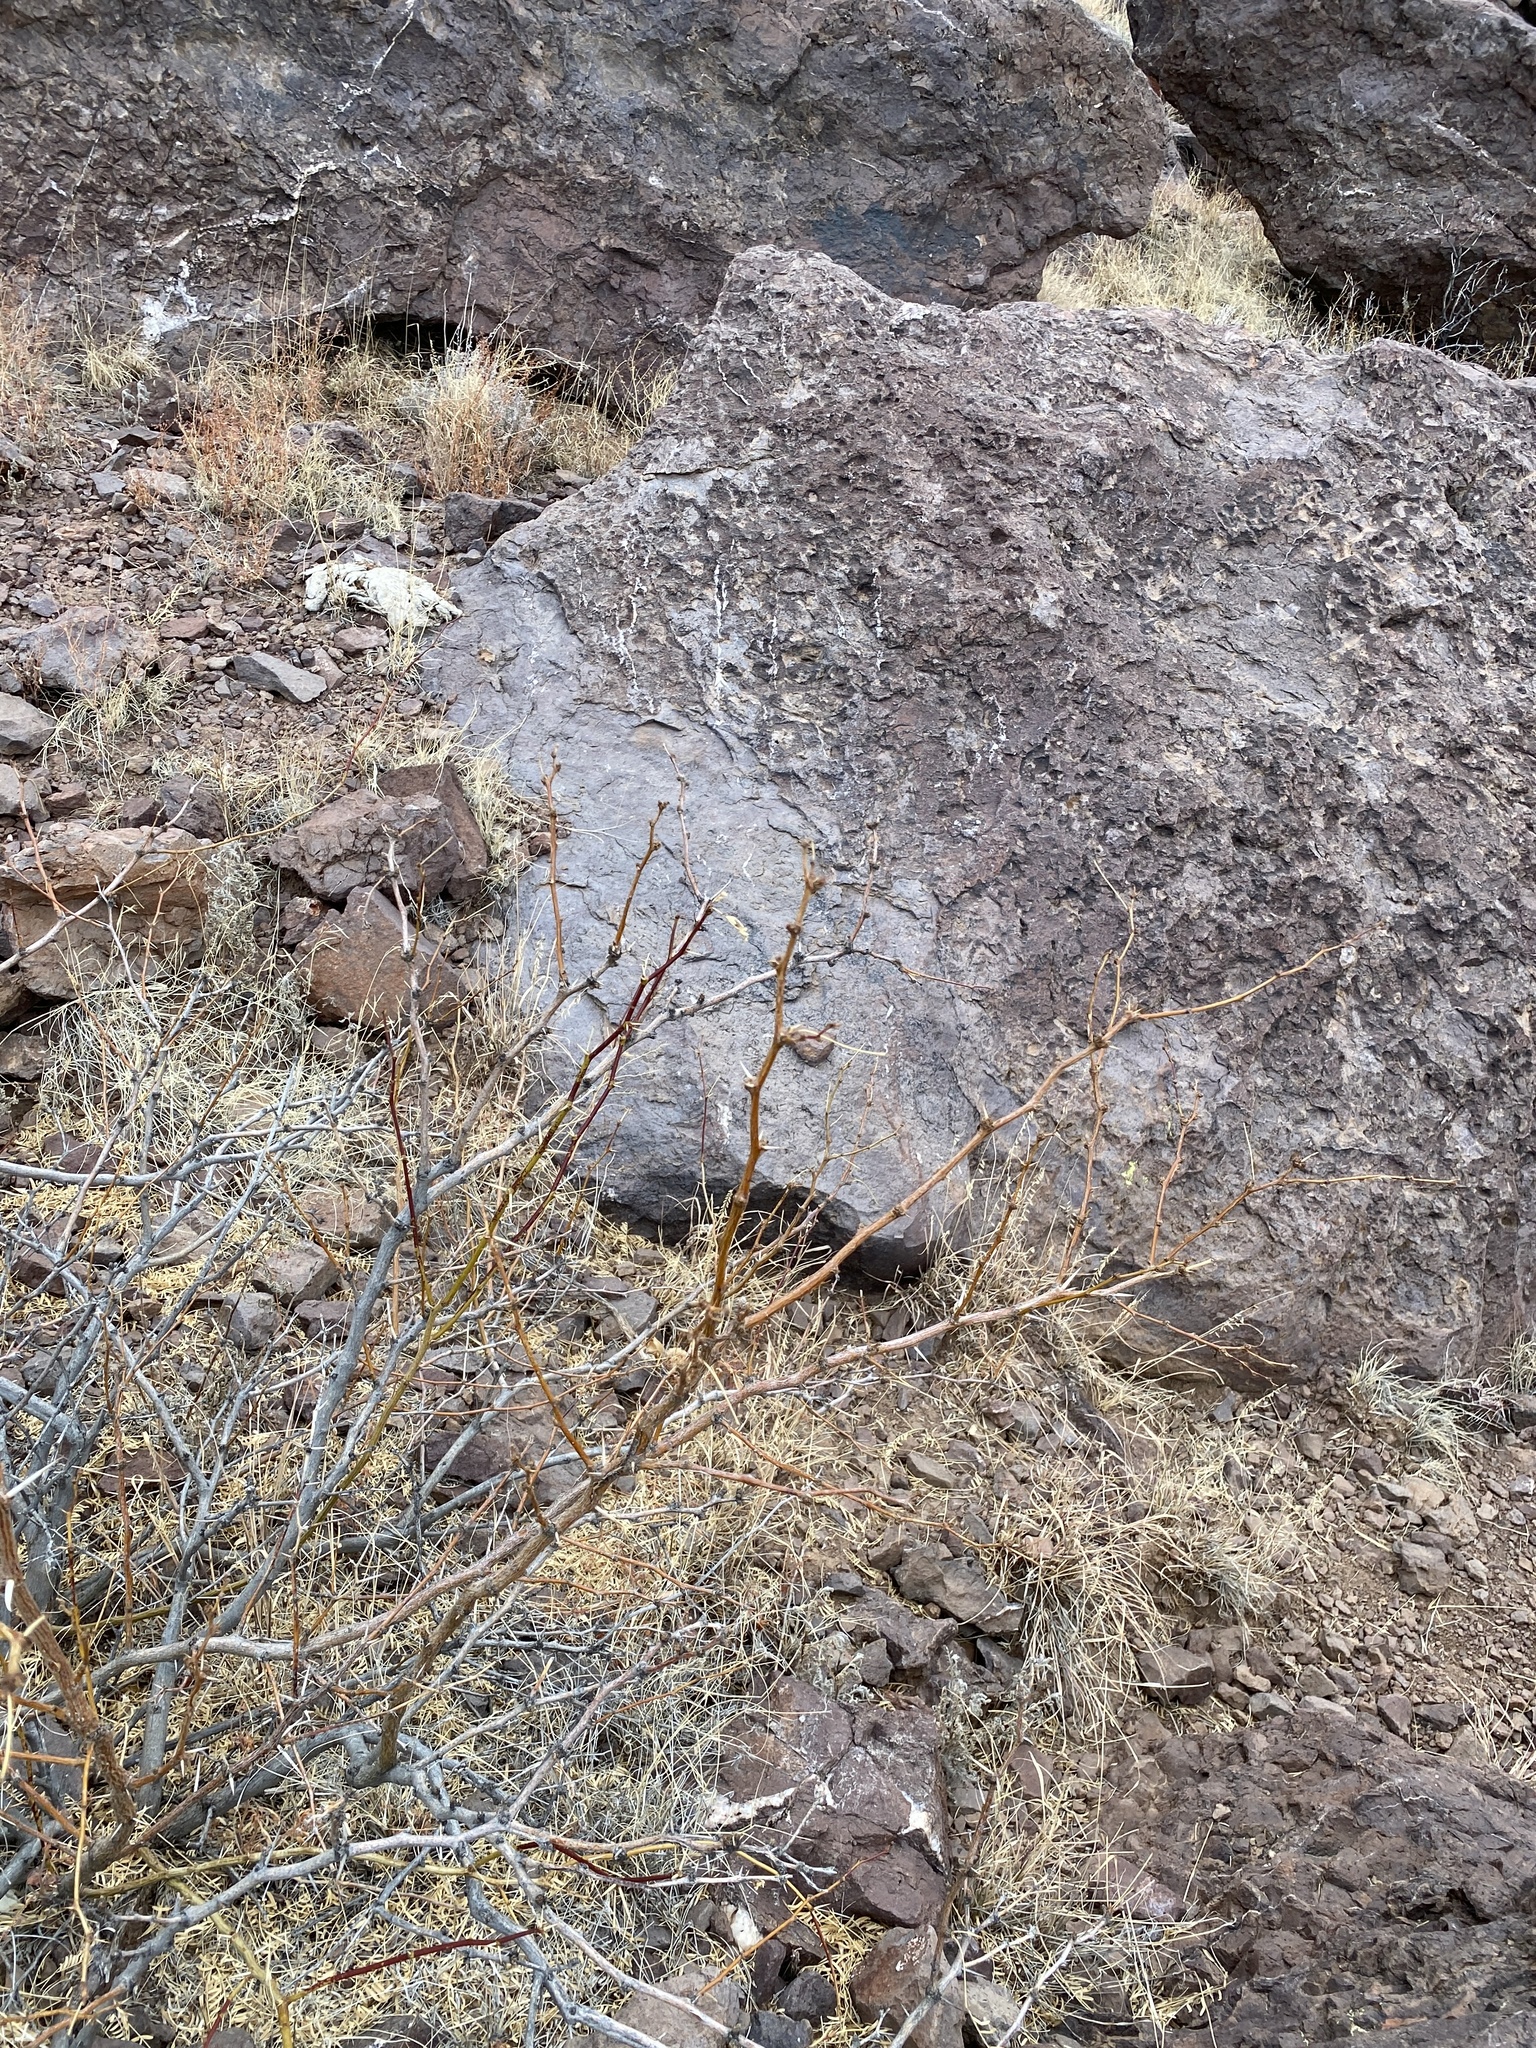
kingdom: Plantae
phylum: Tracheophyta
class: Magnoliopsida
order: Fabales
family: Fabaceae
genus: Prosopis
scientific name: Prosopis glandulosa
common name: Honey mesquite
